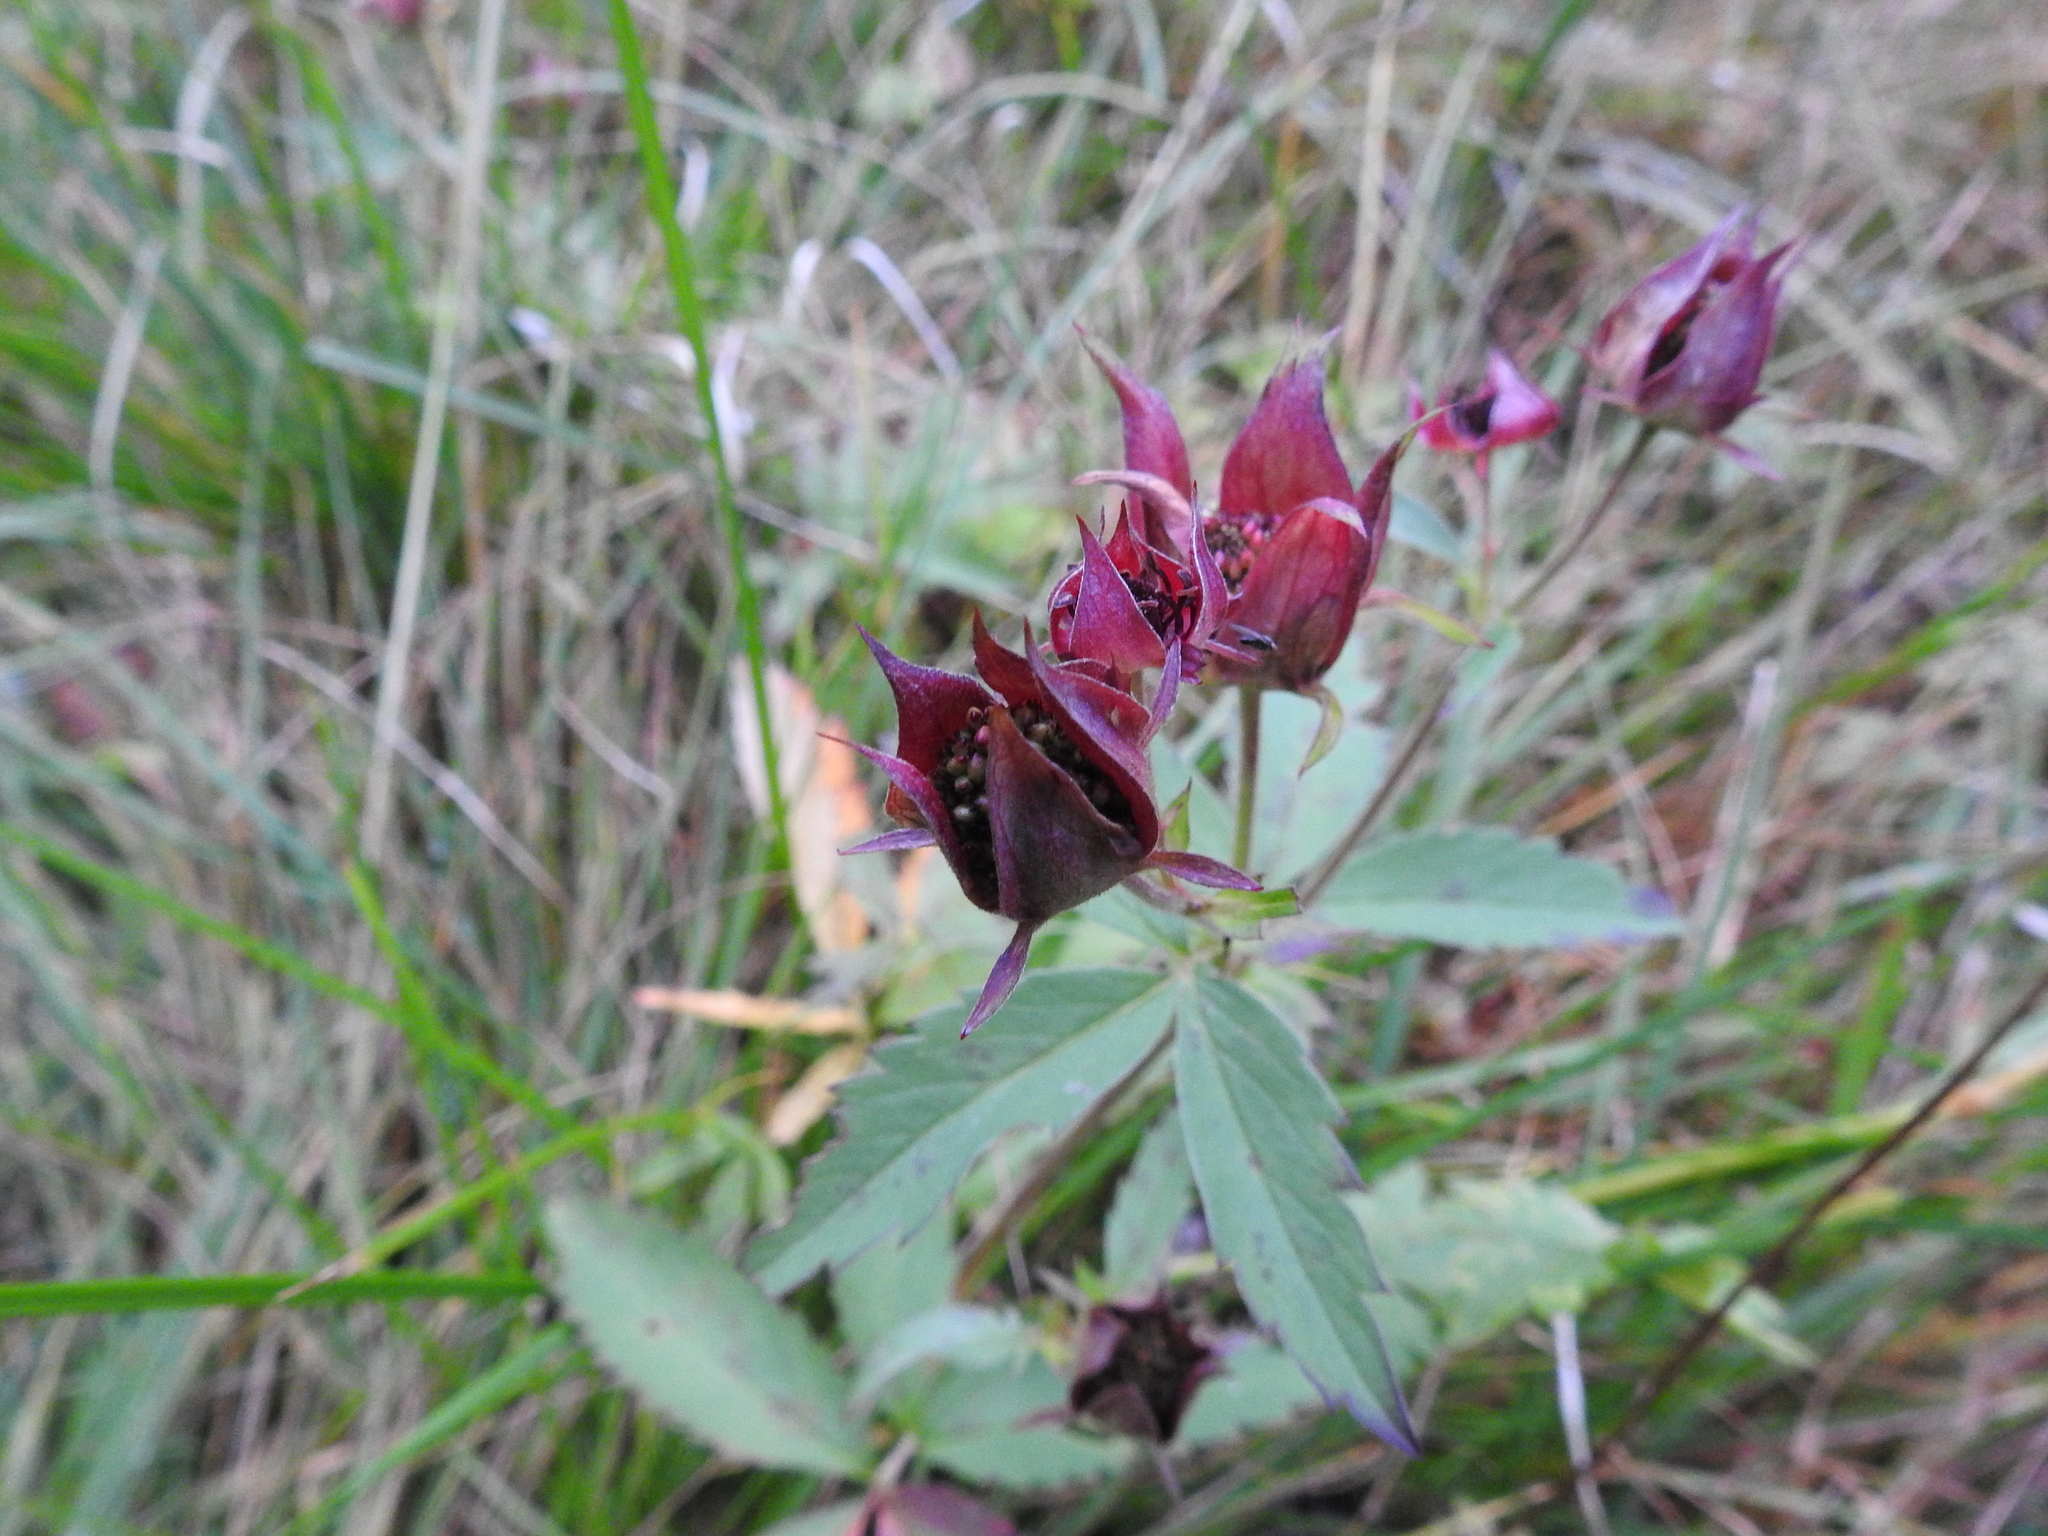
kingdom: Plantae
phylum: Tracheophyta
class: Magnoliopsida
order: Rosales
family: Rosaceae
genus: Comarum
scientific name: Comarum palustre
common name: Marsh cinquefoil
